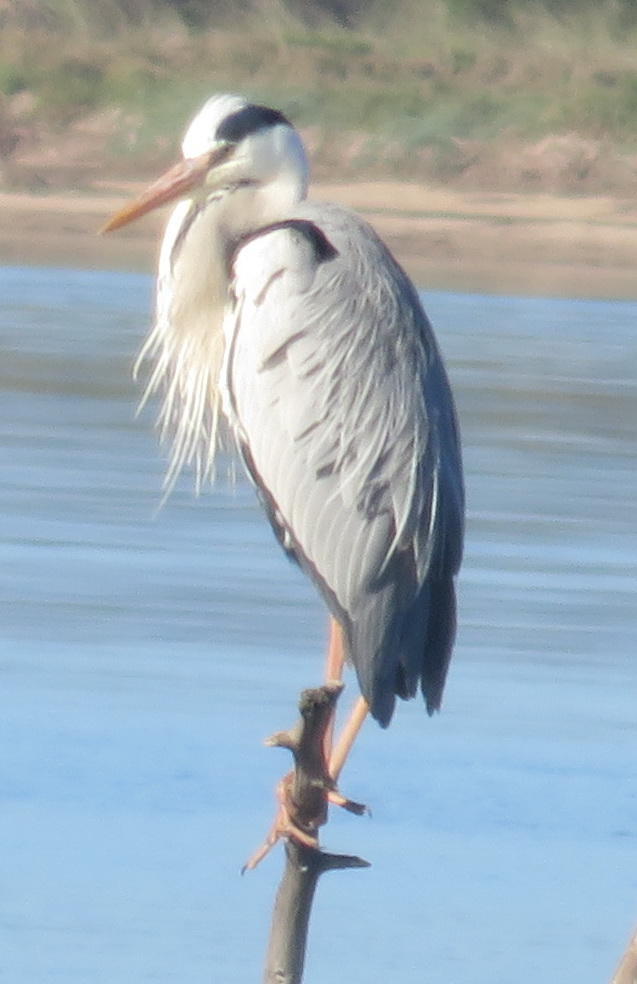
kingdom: Animalia
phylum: Chordata
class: Aves
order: Pelecaniformes
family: Ardeidae
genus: Ardea
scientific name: Ardea cinerea
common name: Grey heron
